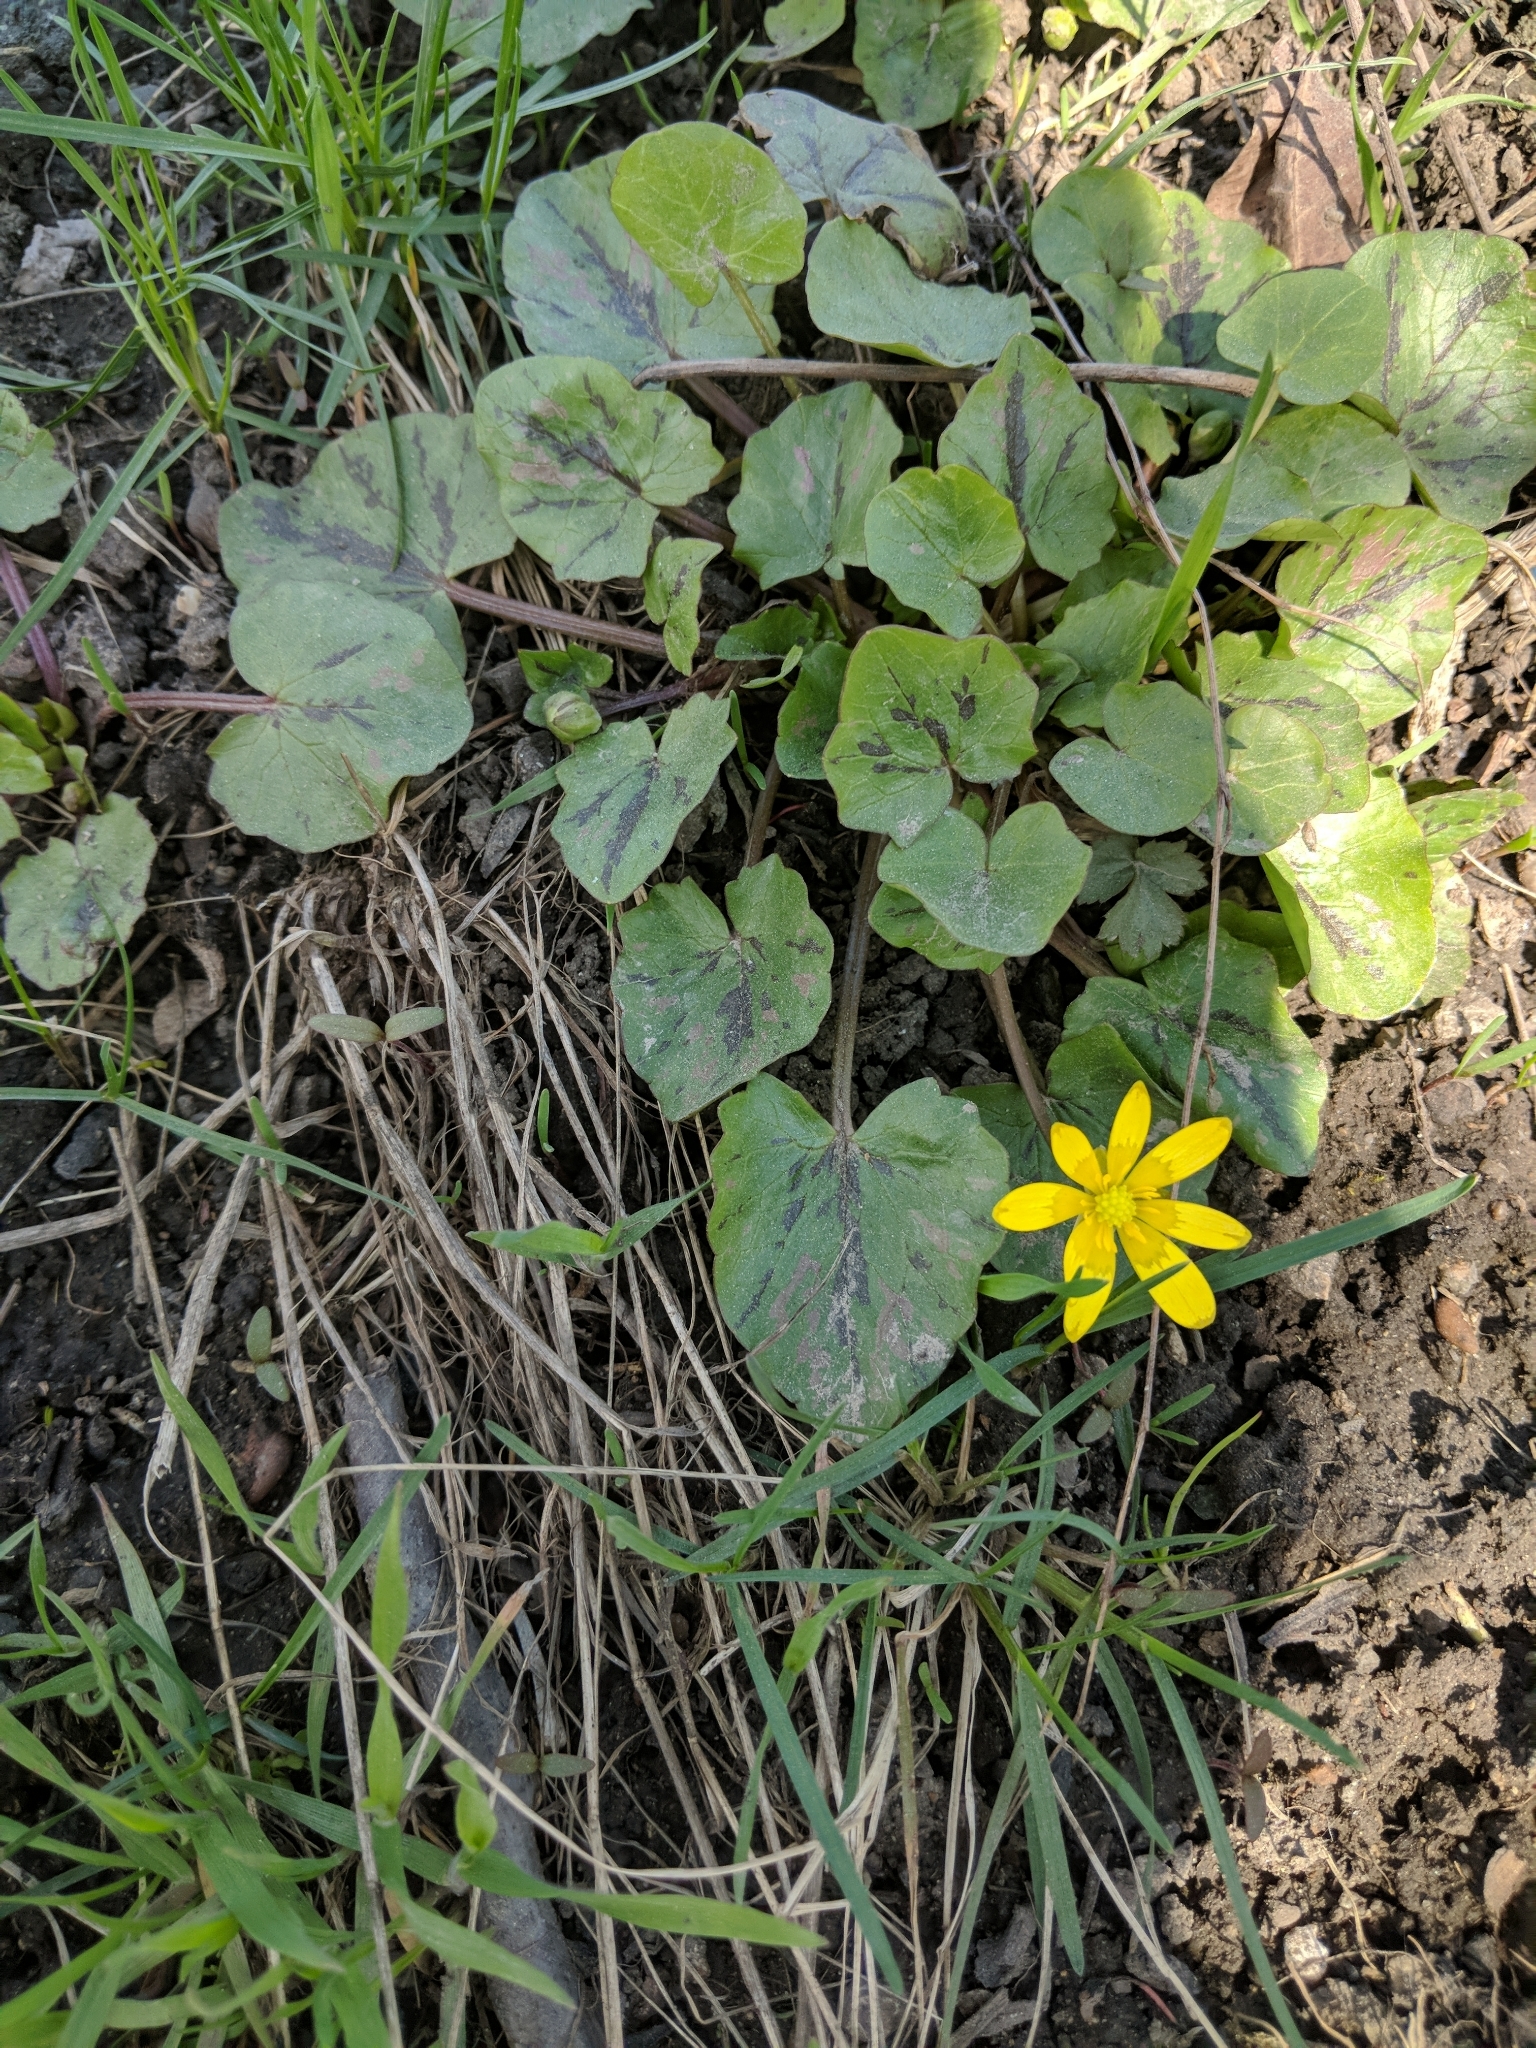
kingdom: Plantae
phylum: Tracheophyta
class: Magnoliopsida
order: Ranunculales
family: Ranunculaceae
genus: Ficaria
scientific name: Ficaria verna
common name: Lesser celandine
